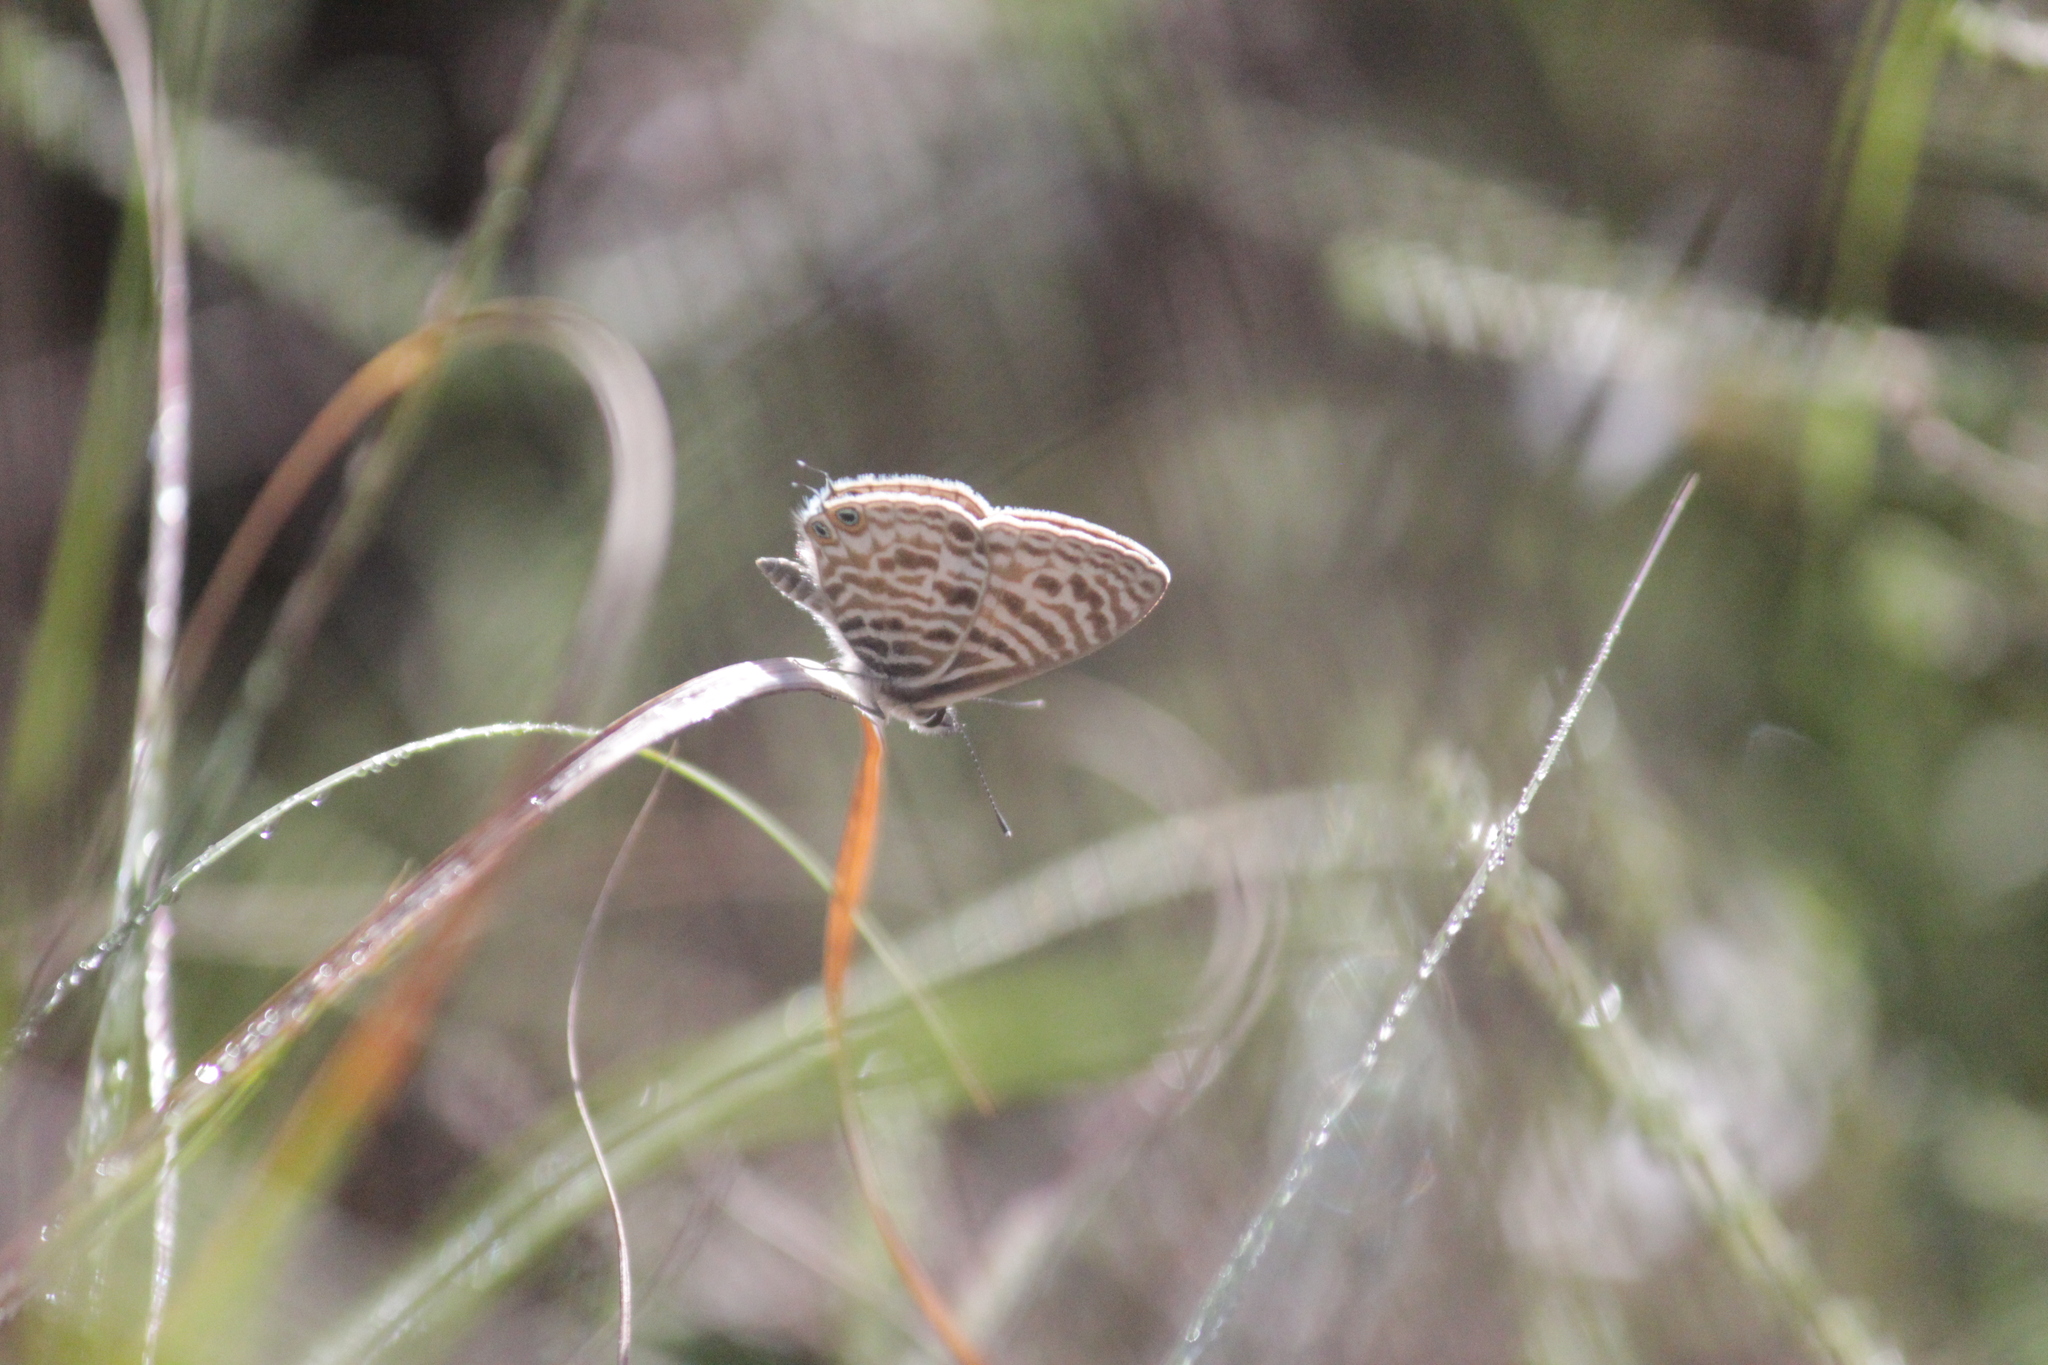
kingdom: Animalia
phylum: Arthropoda
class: Insecta
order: Lepidoptera
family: Lycaenidae
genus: Leptotes
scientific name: Leptotes
